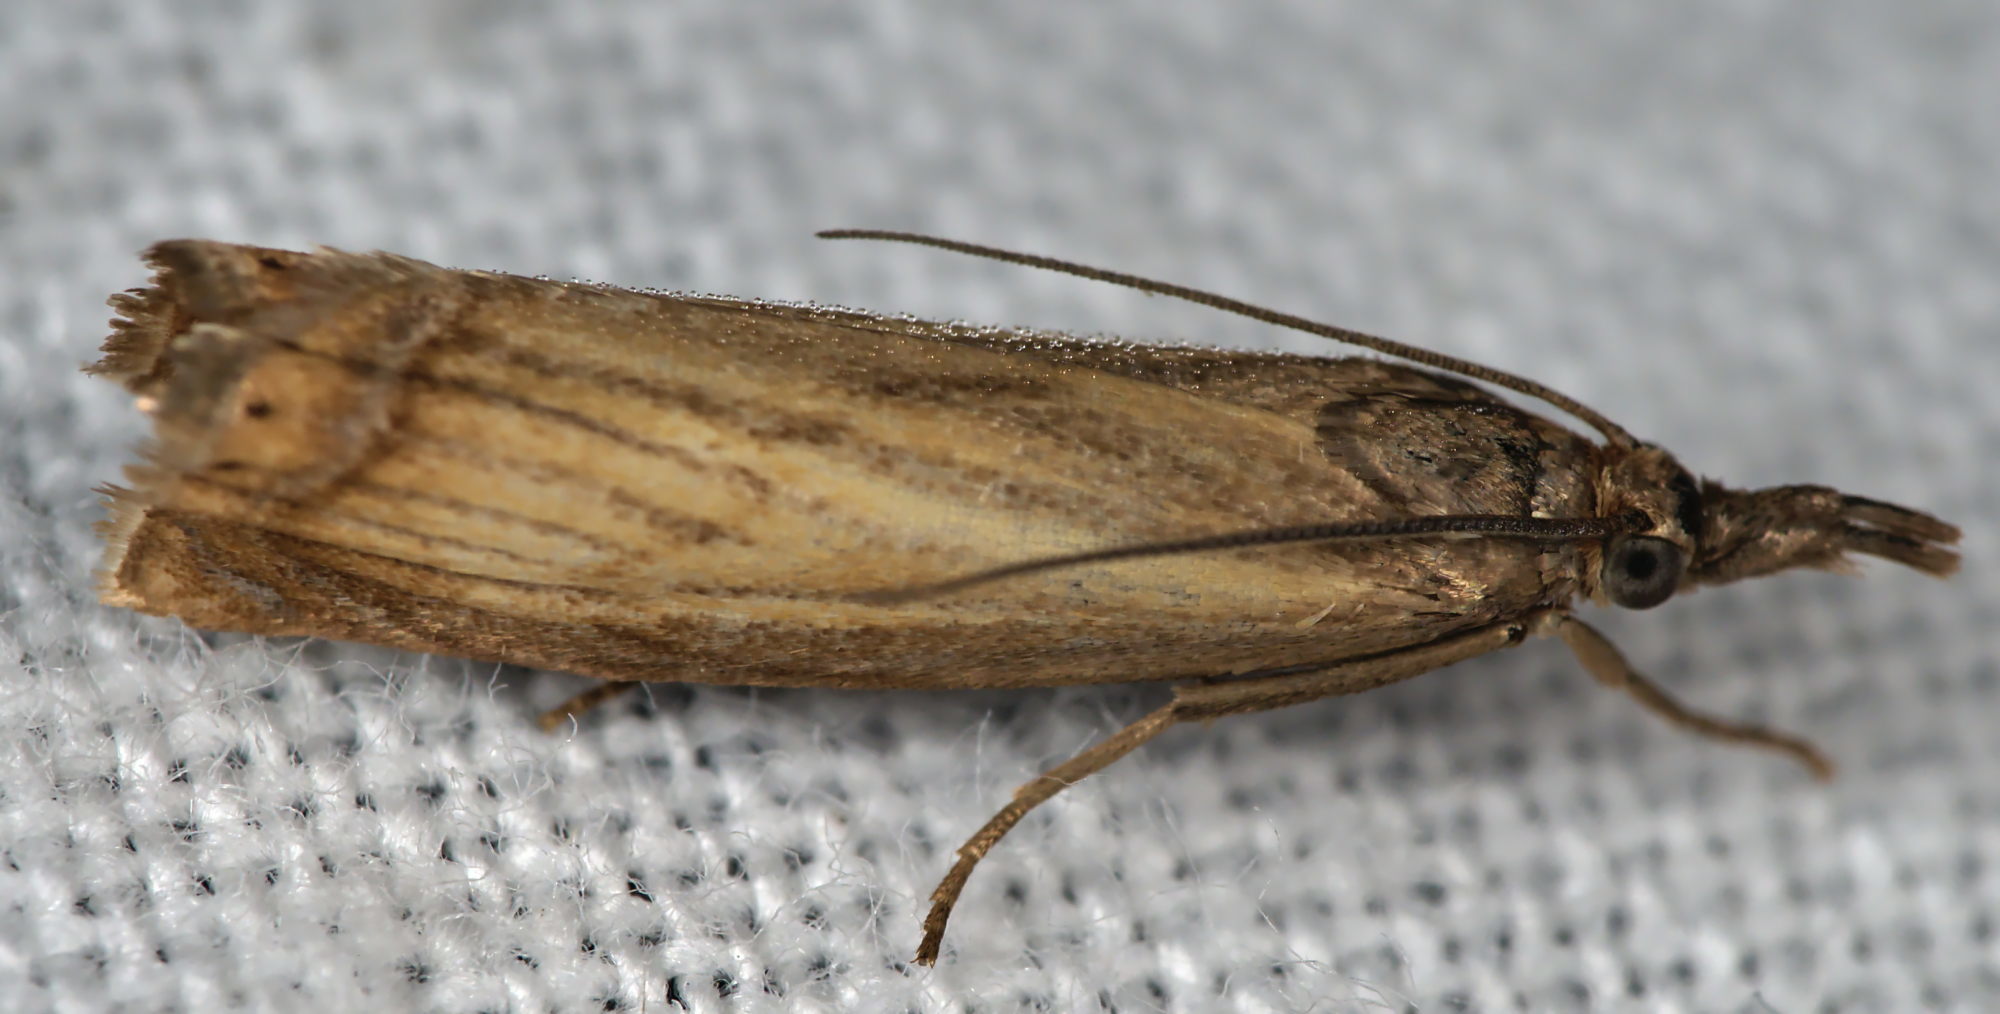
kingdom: Animalia
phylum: Arthropoda
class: Insecta
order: Lepidoptera
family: Crambidae
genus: Chrysoteuchia
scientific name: Chrysoteuchia culmella
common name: Garden grass-veneer
